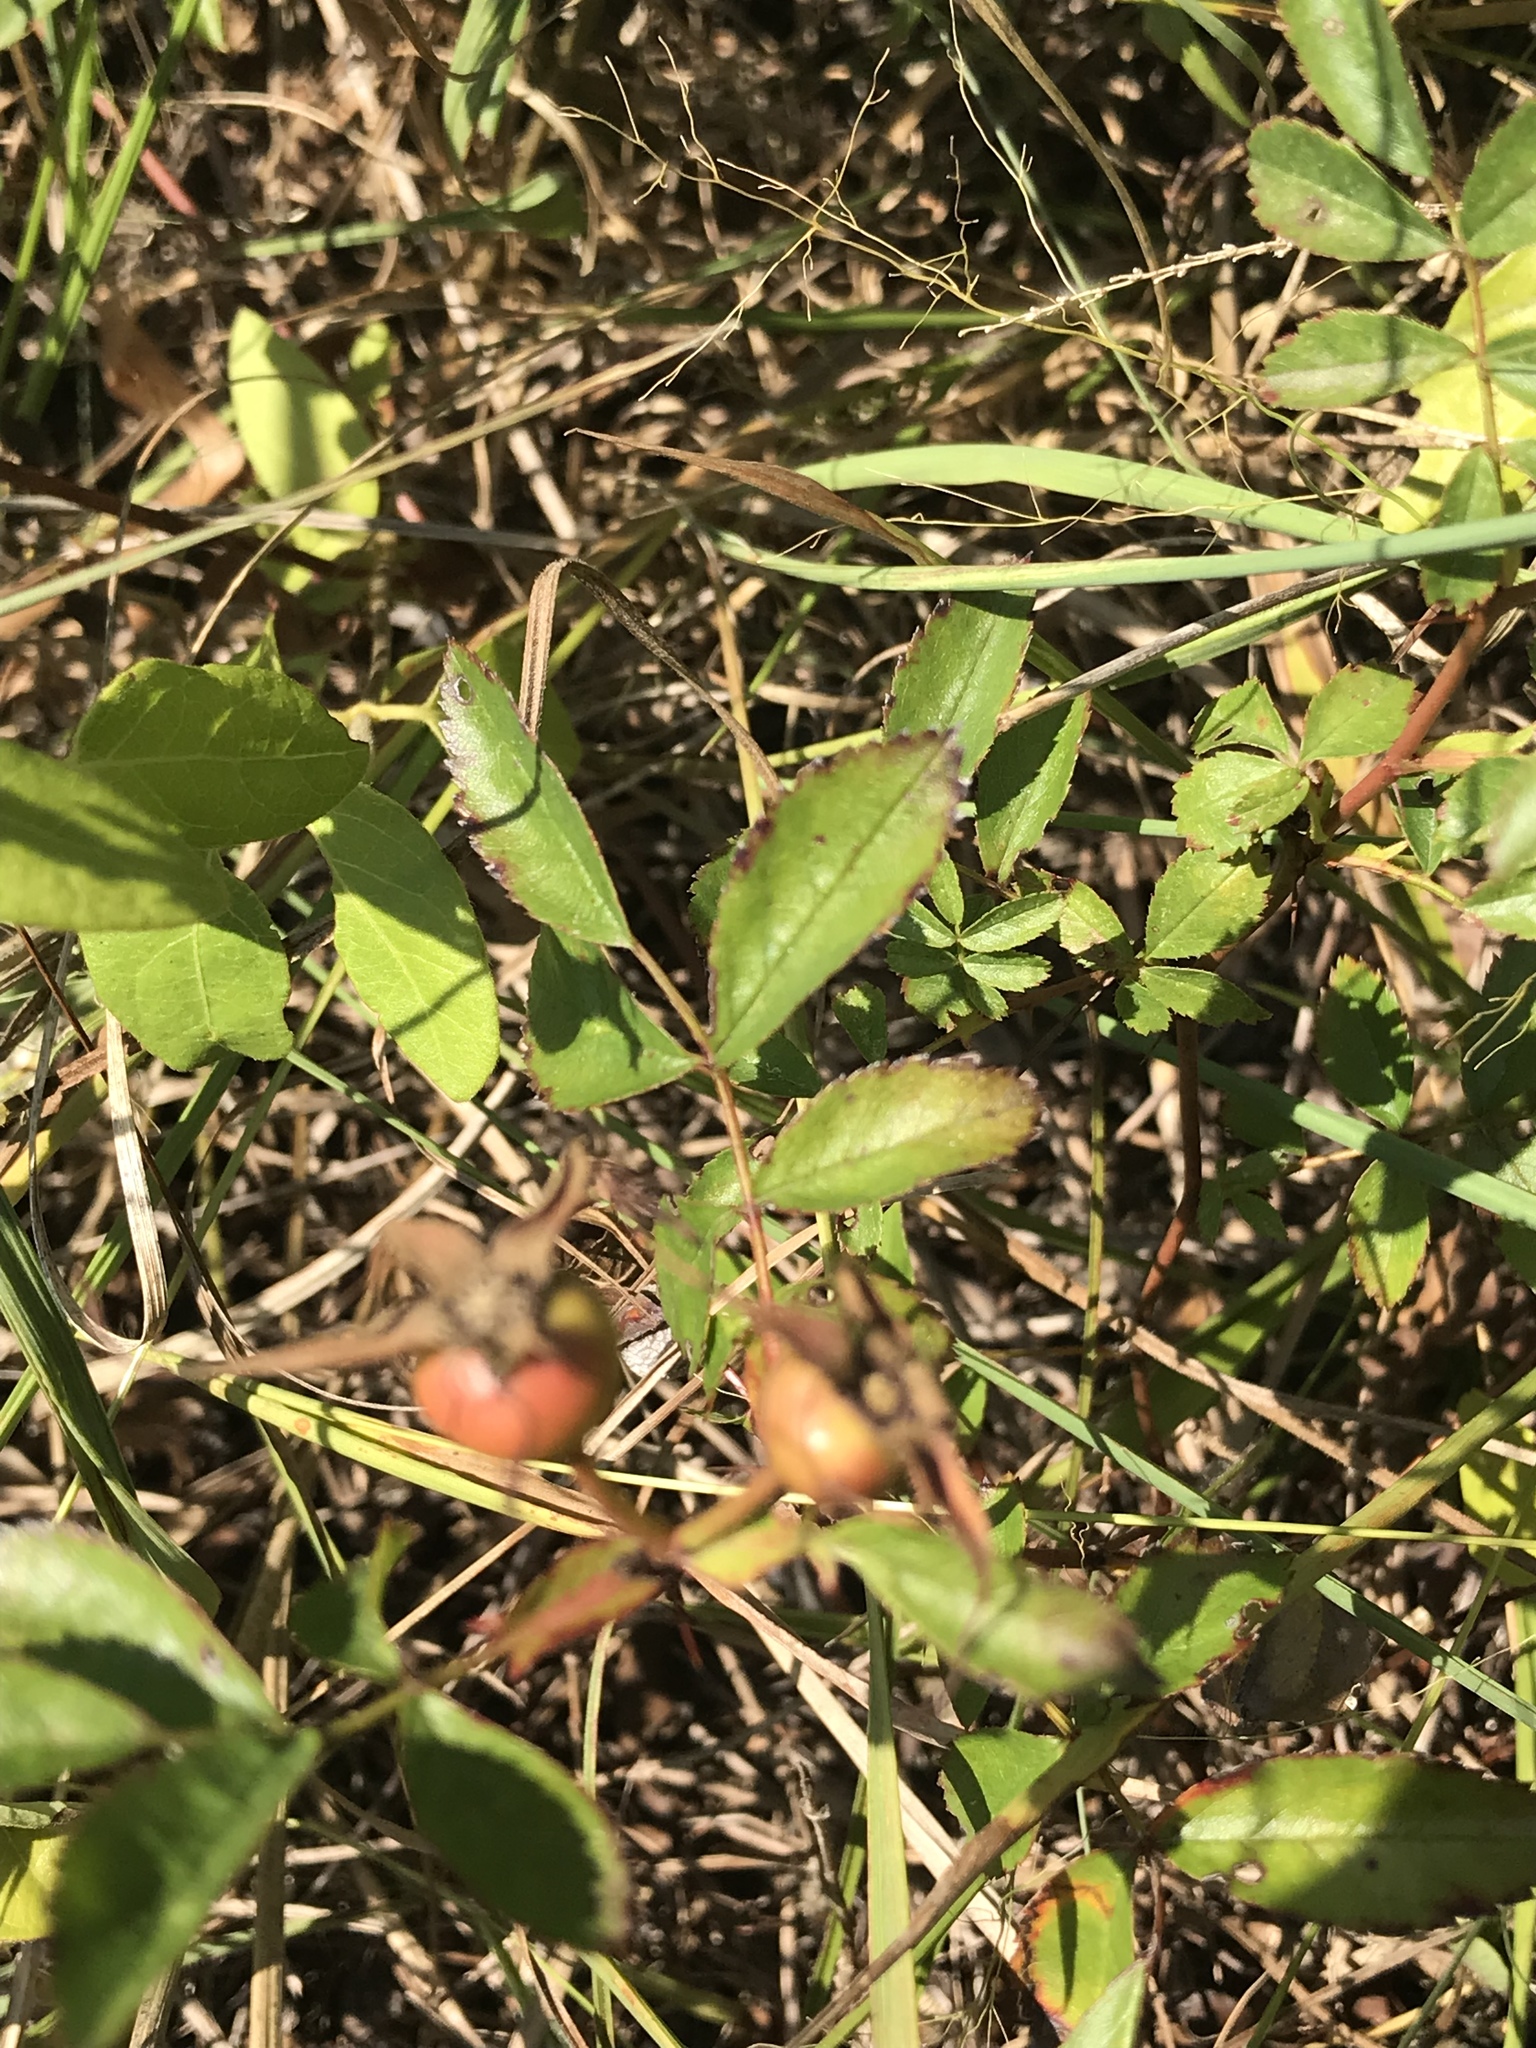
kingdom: Plantae
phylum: Tracheophyta
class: Magnoliopsida
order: Rosales
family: Rosaceae
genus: Rosa
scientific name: Rosa carolina
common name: Pasture rose
